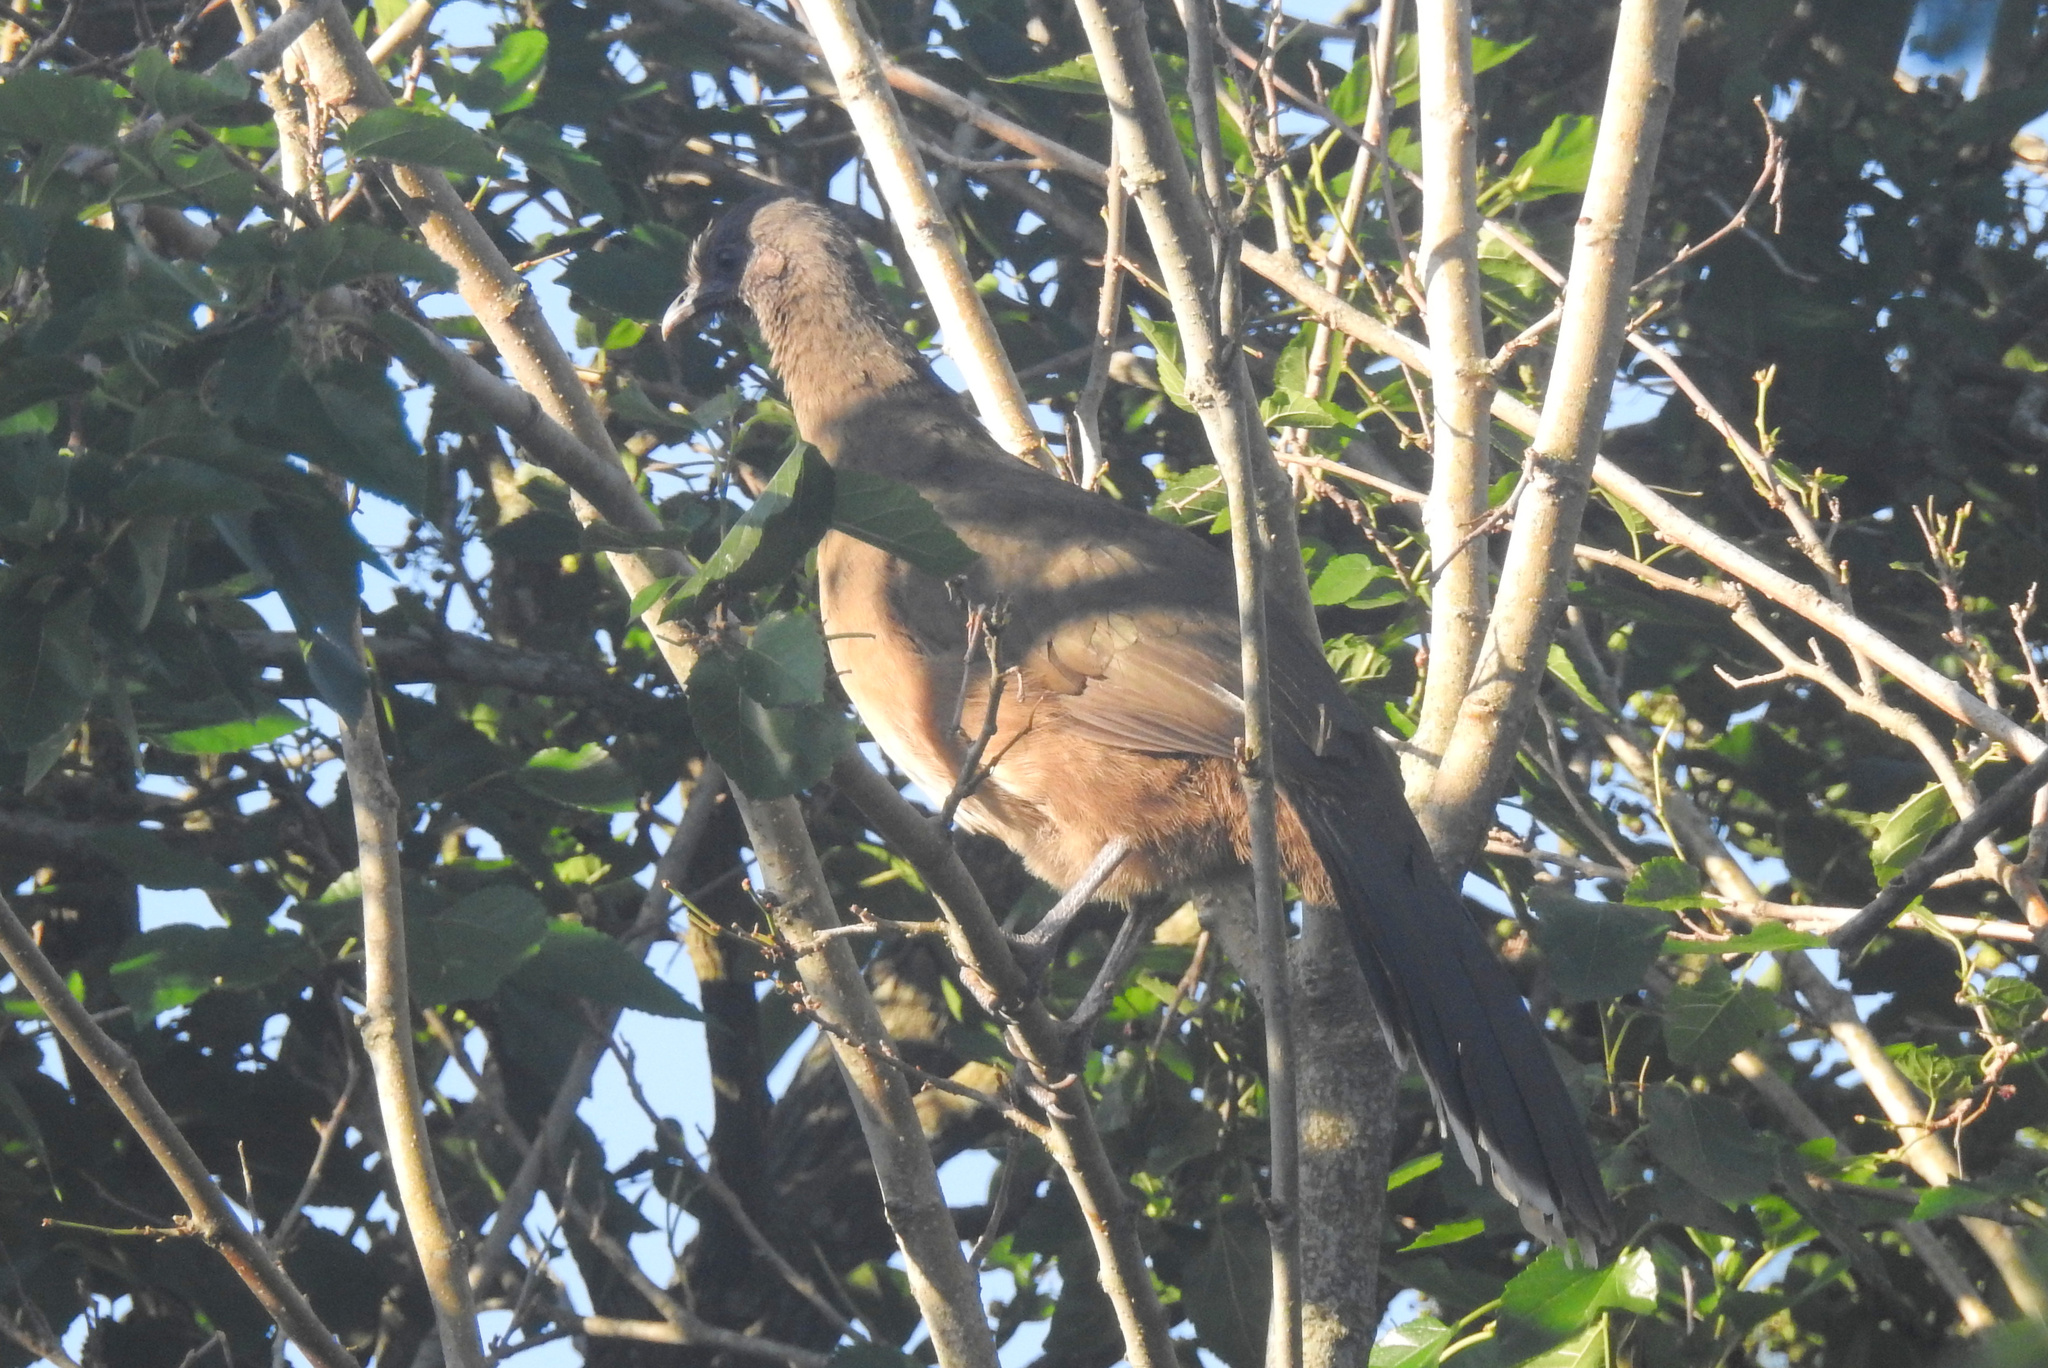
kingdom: Animalia
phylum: Chordata
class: Aves
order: Galliformes
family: Cracidae
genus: Ortalis
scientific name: Ortalis vetula
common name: Plain chachalaca
